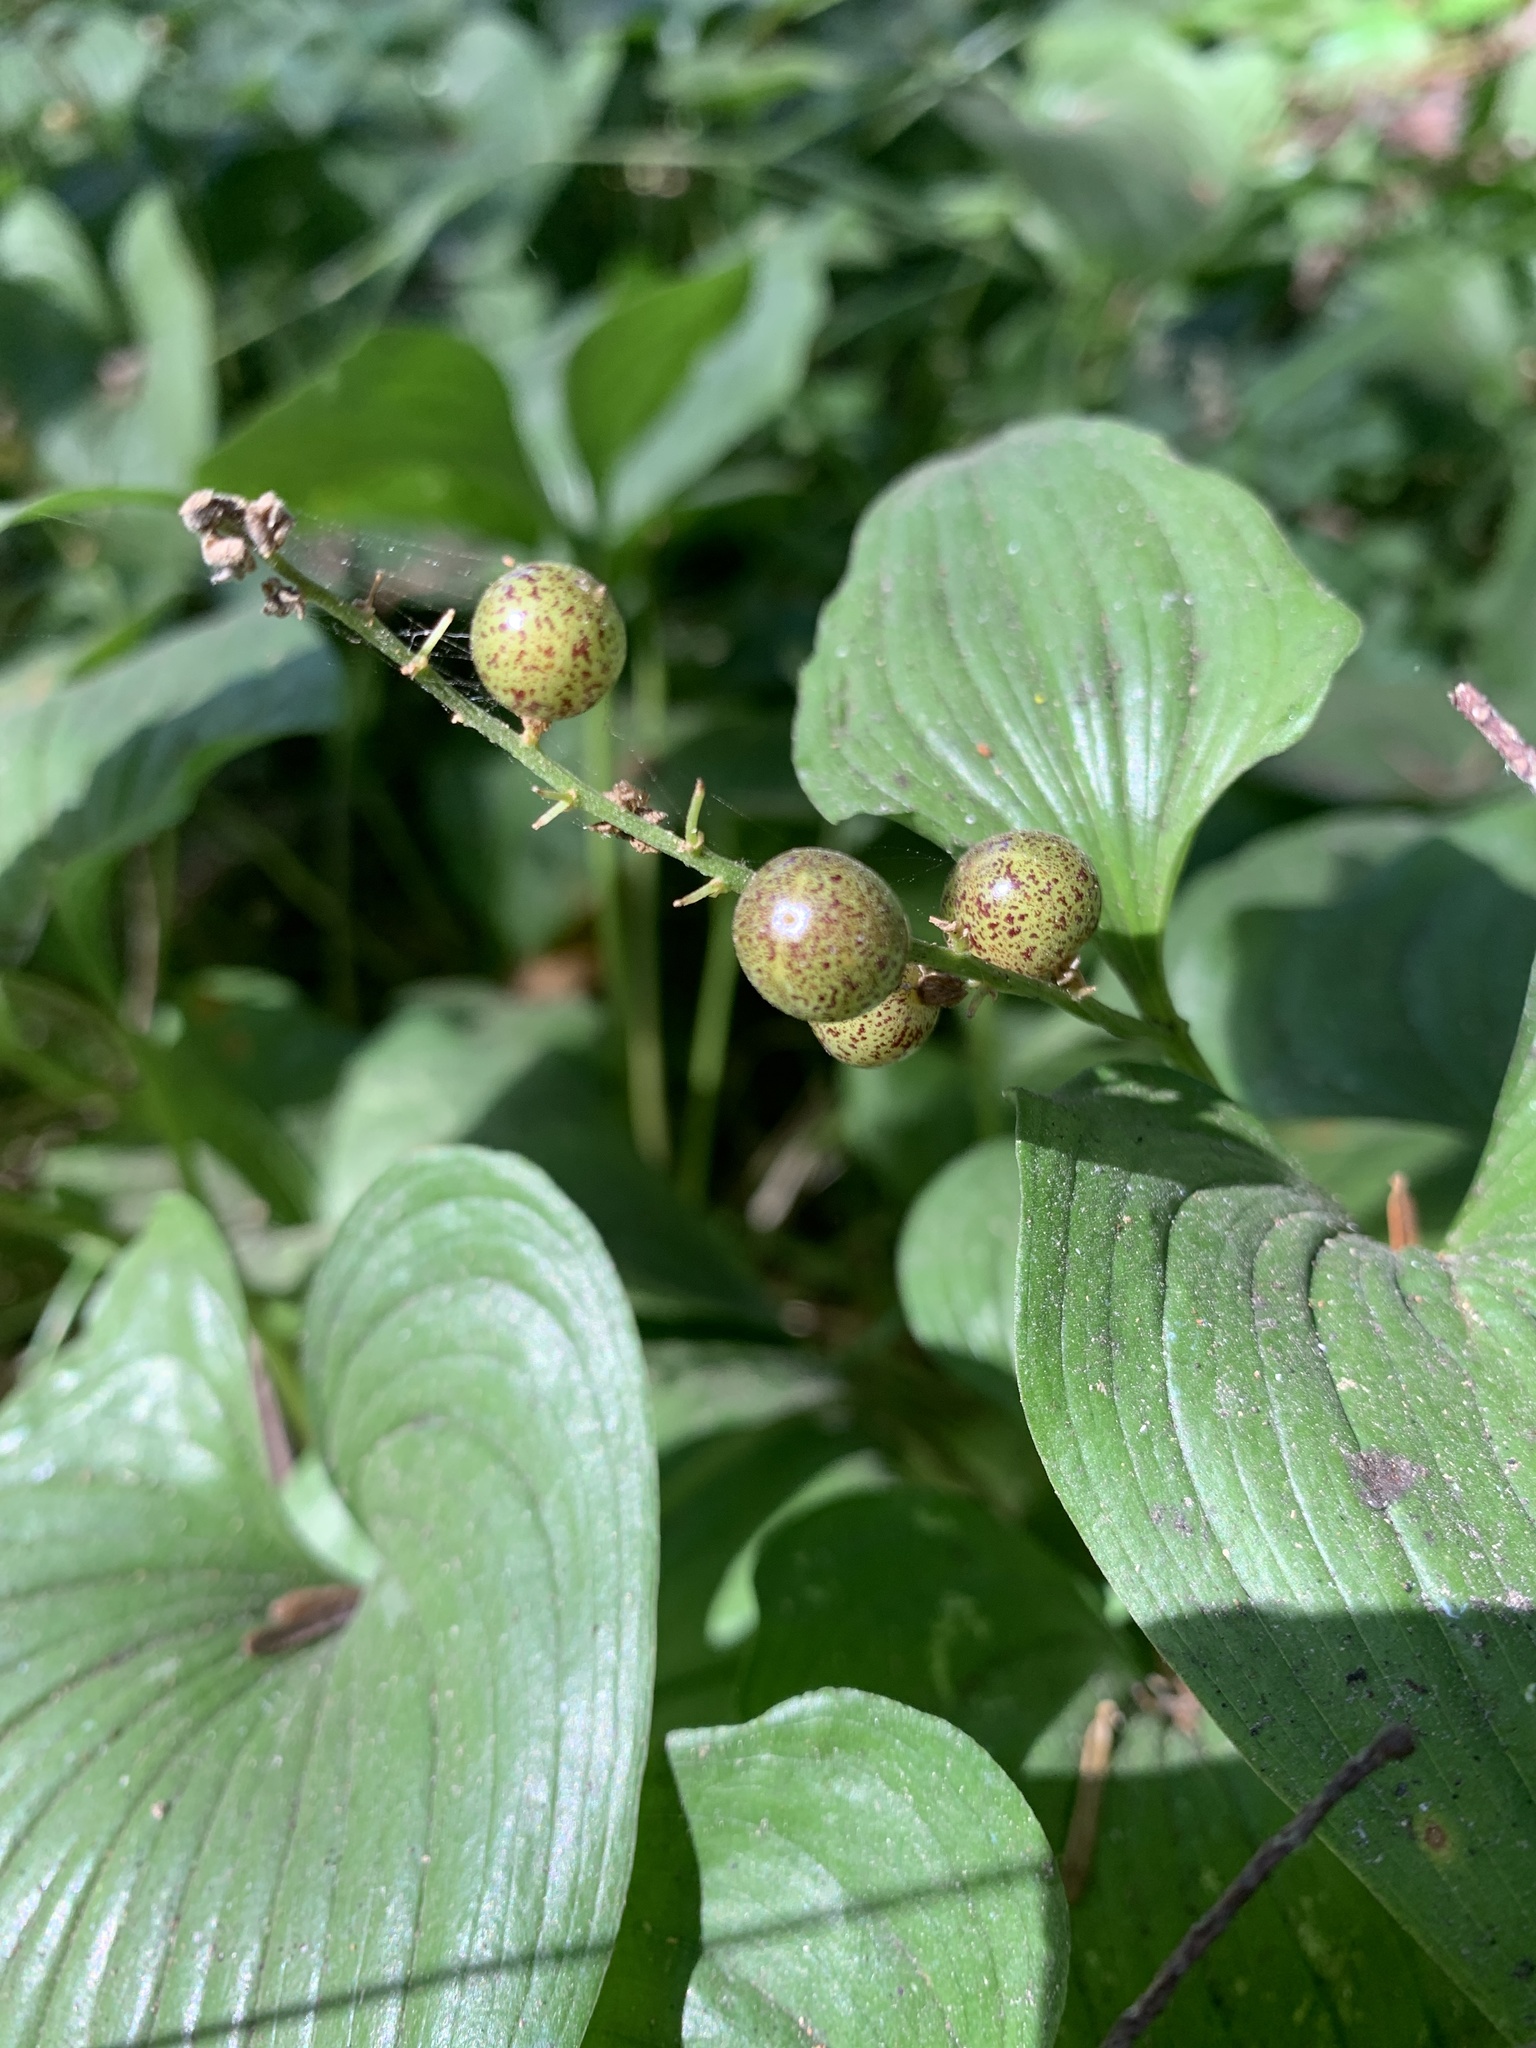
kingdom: Plantae
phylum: Tracheophyta
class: Liliopsida
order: Asparagales
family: Asparagaceae
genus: Maianthemum
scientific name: Maianthemum dilatatum
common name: False lily-of-the-valley
